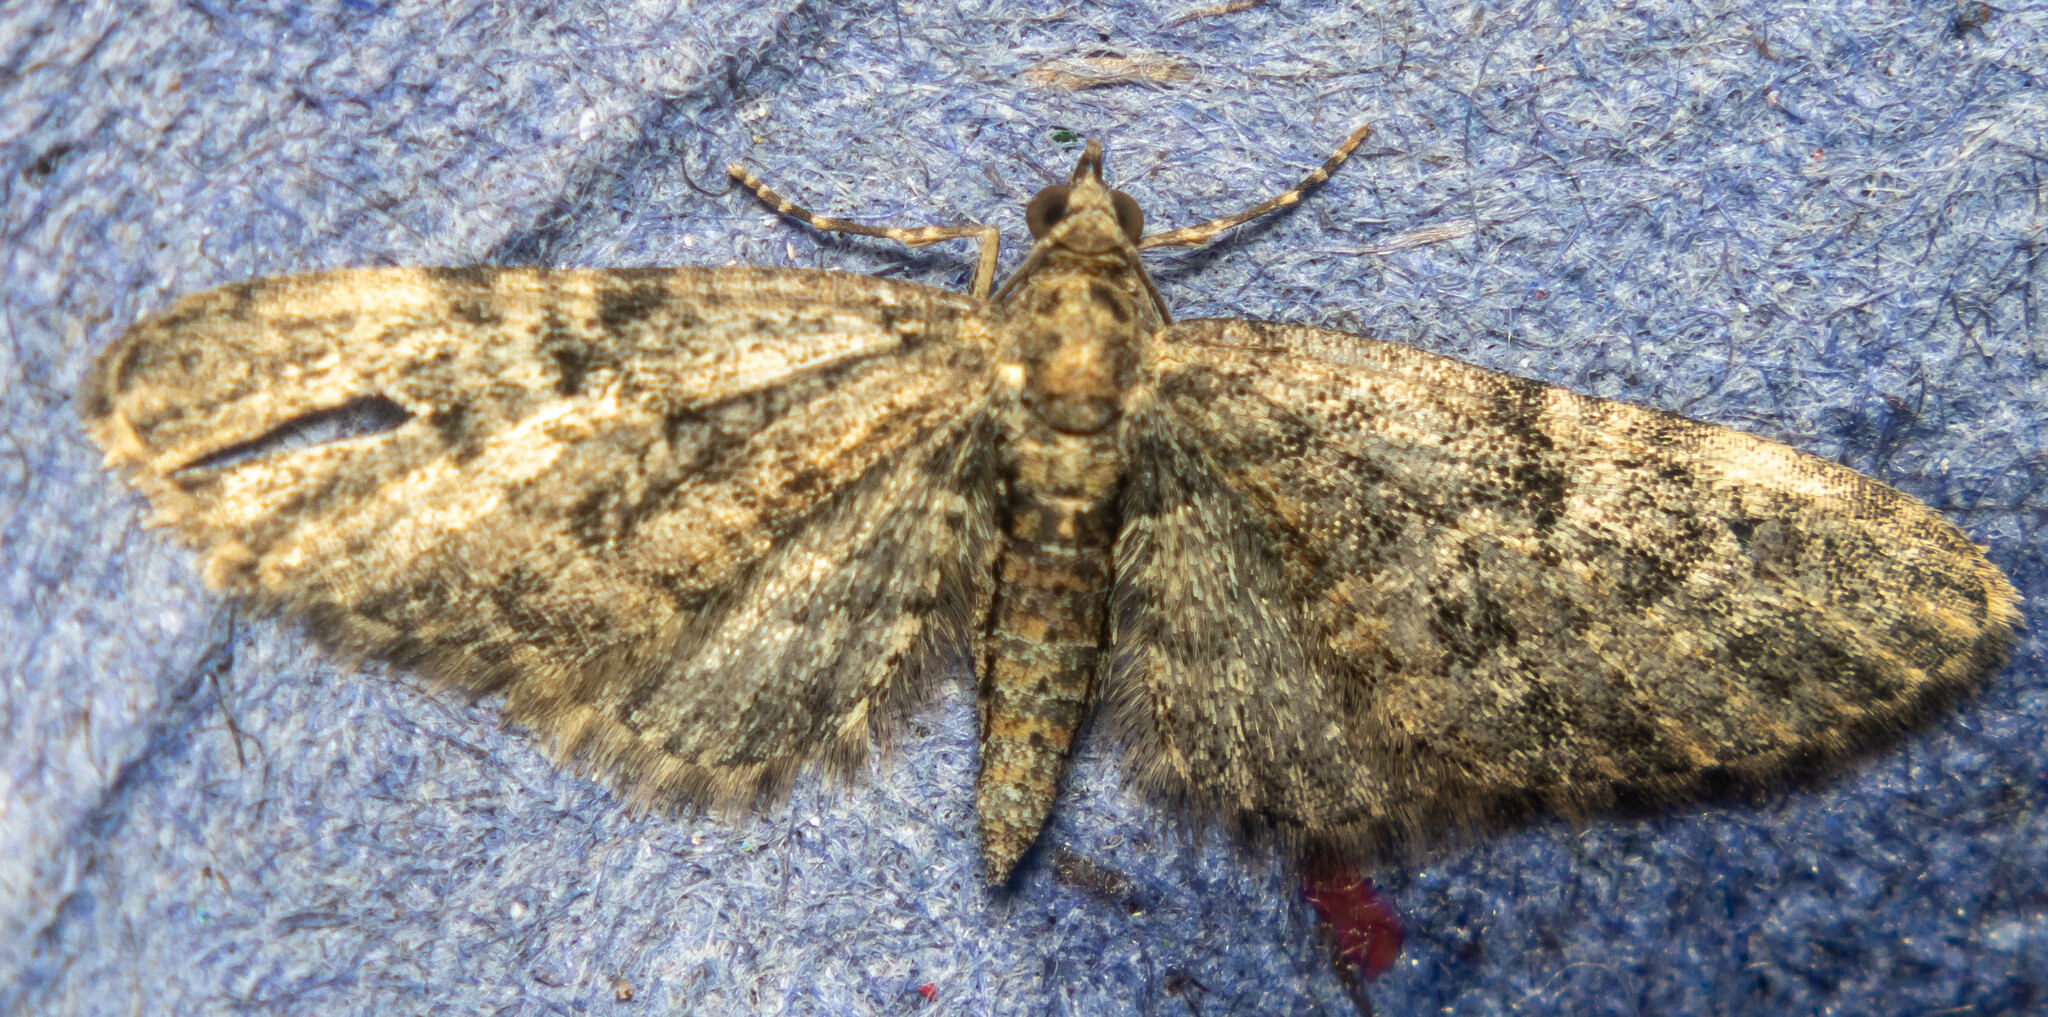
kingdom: Animalia
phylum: Arthropoda
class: Insecta
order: Lepidoptera
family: Geometridae
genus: Eupithecia
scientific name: Eupithecia abbreviata
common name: Brindled pug
